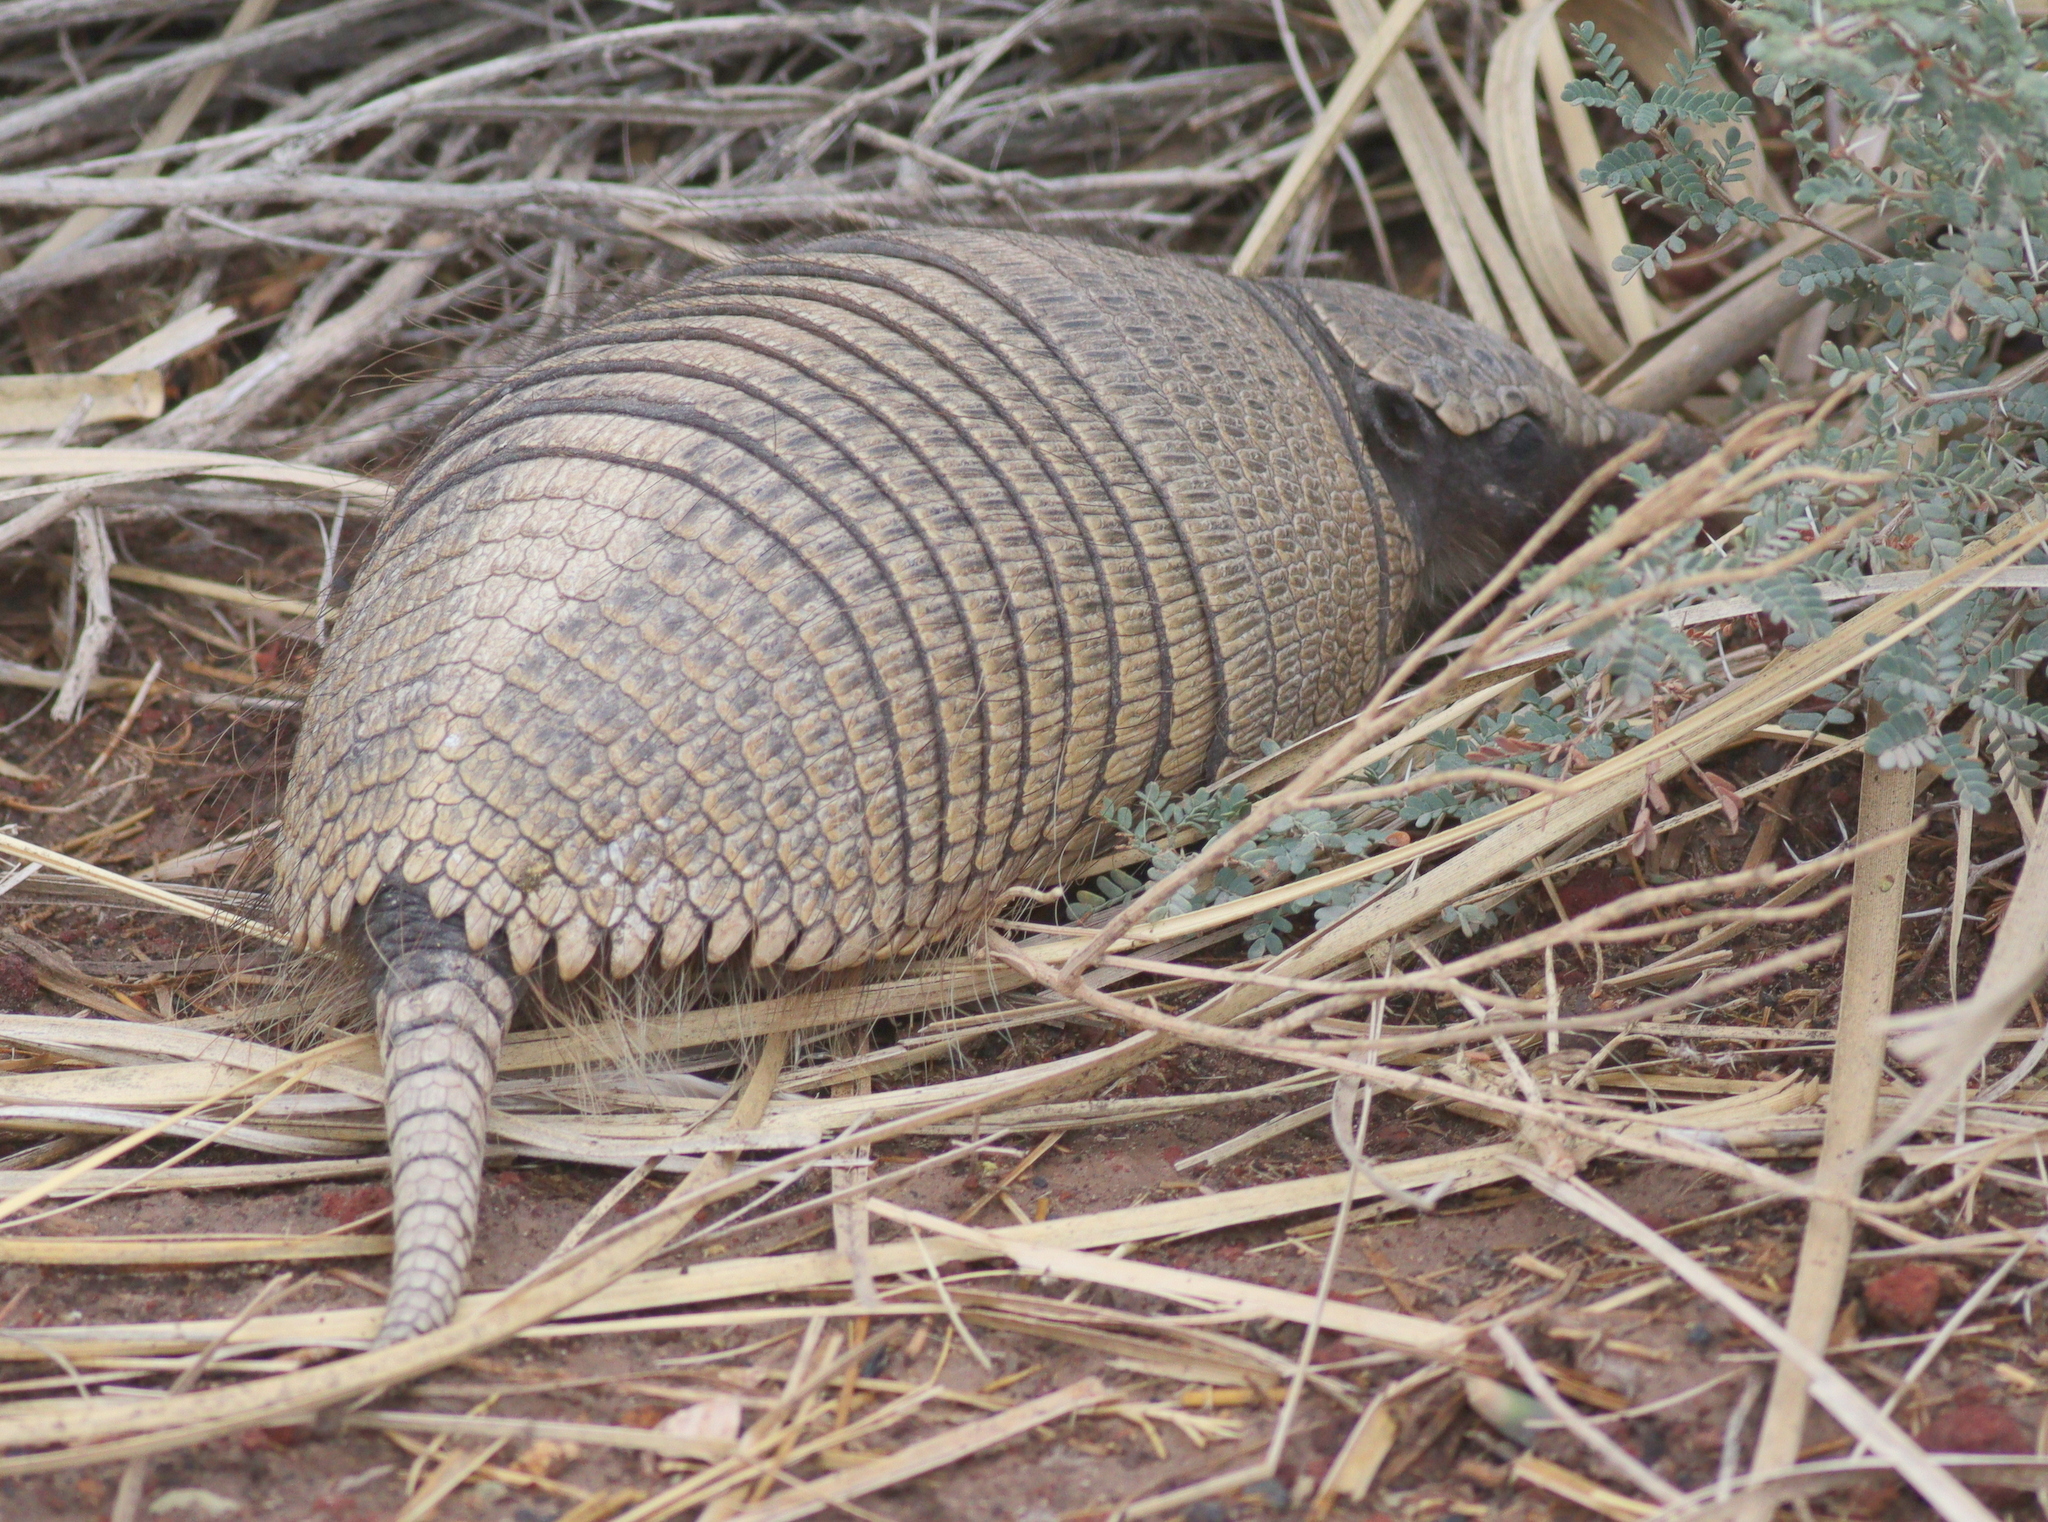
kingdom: Animalia
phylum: Chordata
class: Mammalia
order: Cingulata
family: Dasypodidae
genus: Zaedyus
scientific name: Zaedyus pichiy
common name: Pichi
